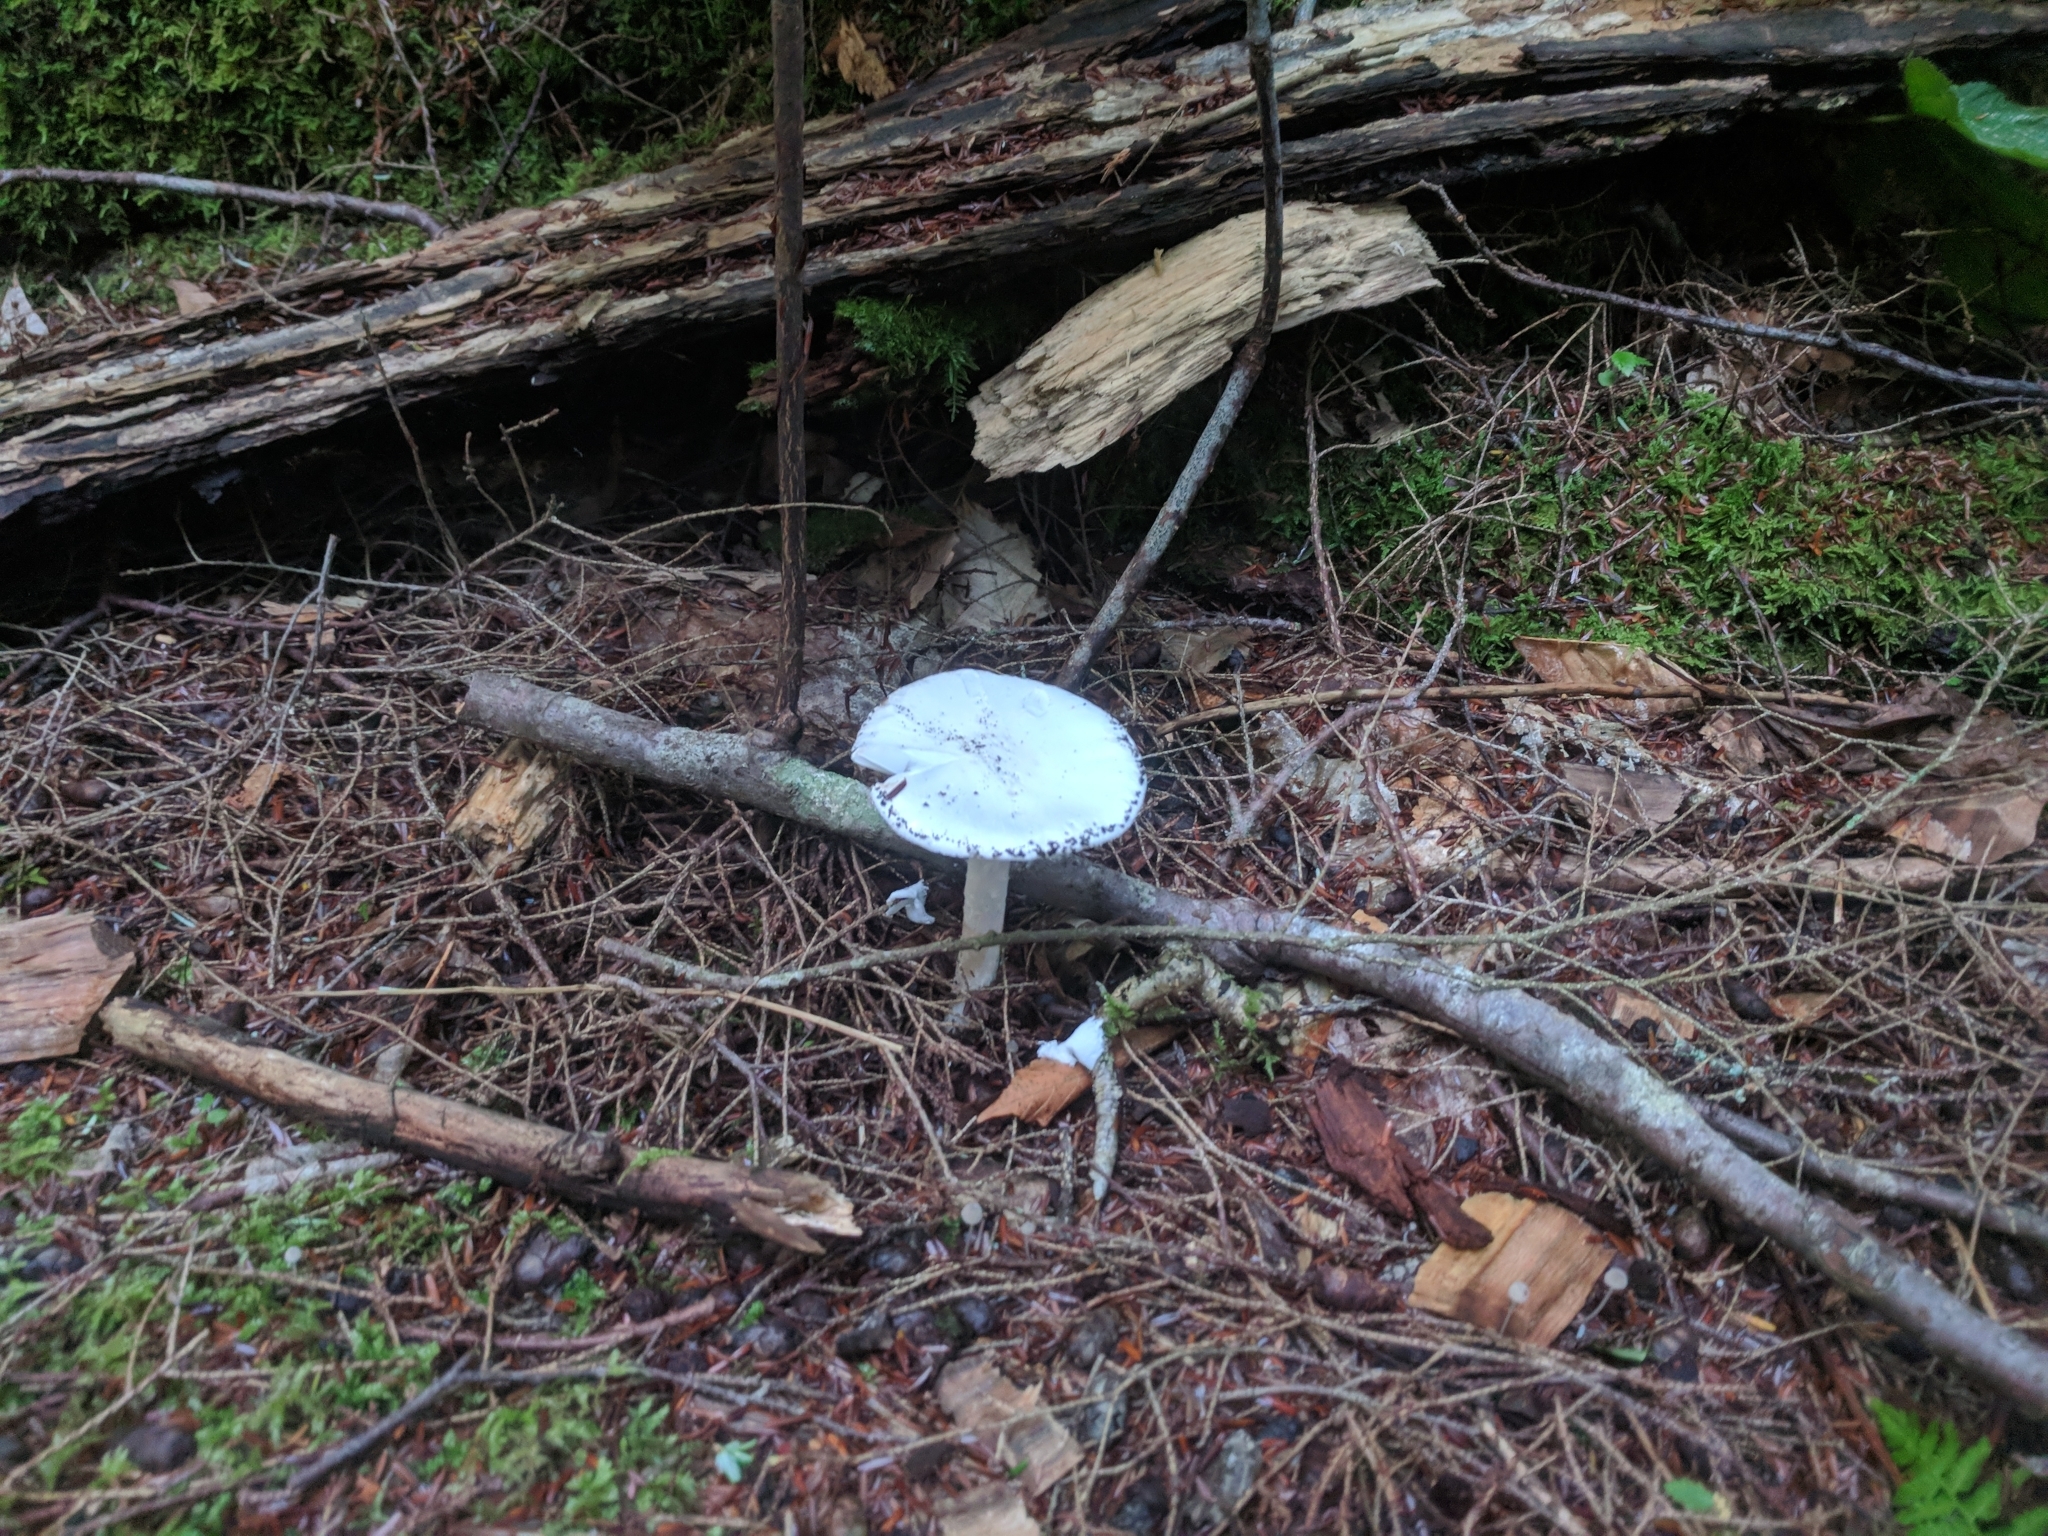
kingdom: Fungi
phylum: Basidiomycota
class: Agaricomycetes
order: Agaricales
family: Amanitaceae
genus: Amanita
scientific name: Amanita bisporigera
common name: Eastern north american destroying angel
